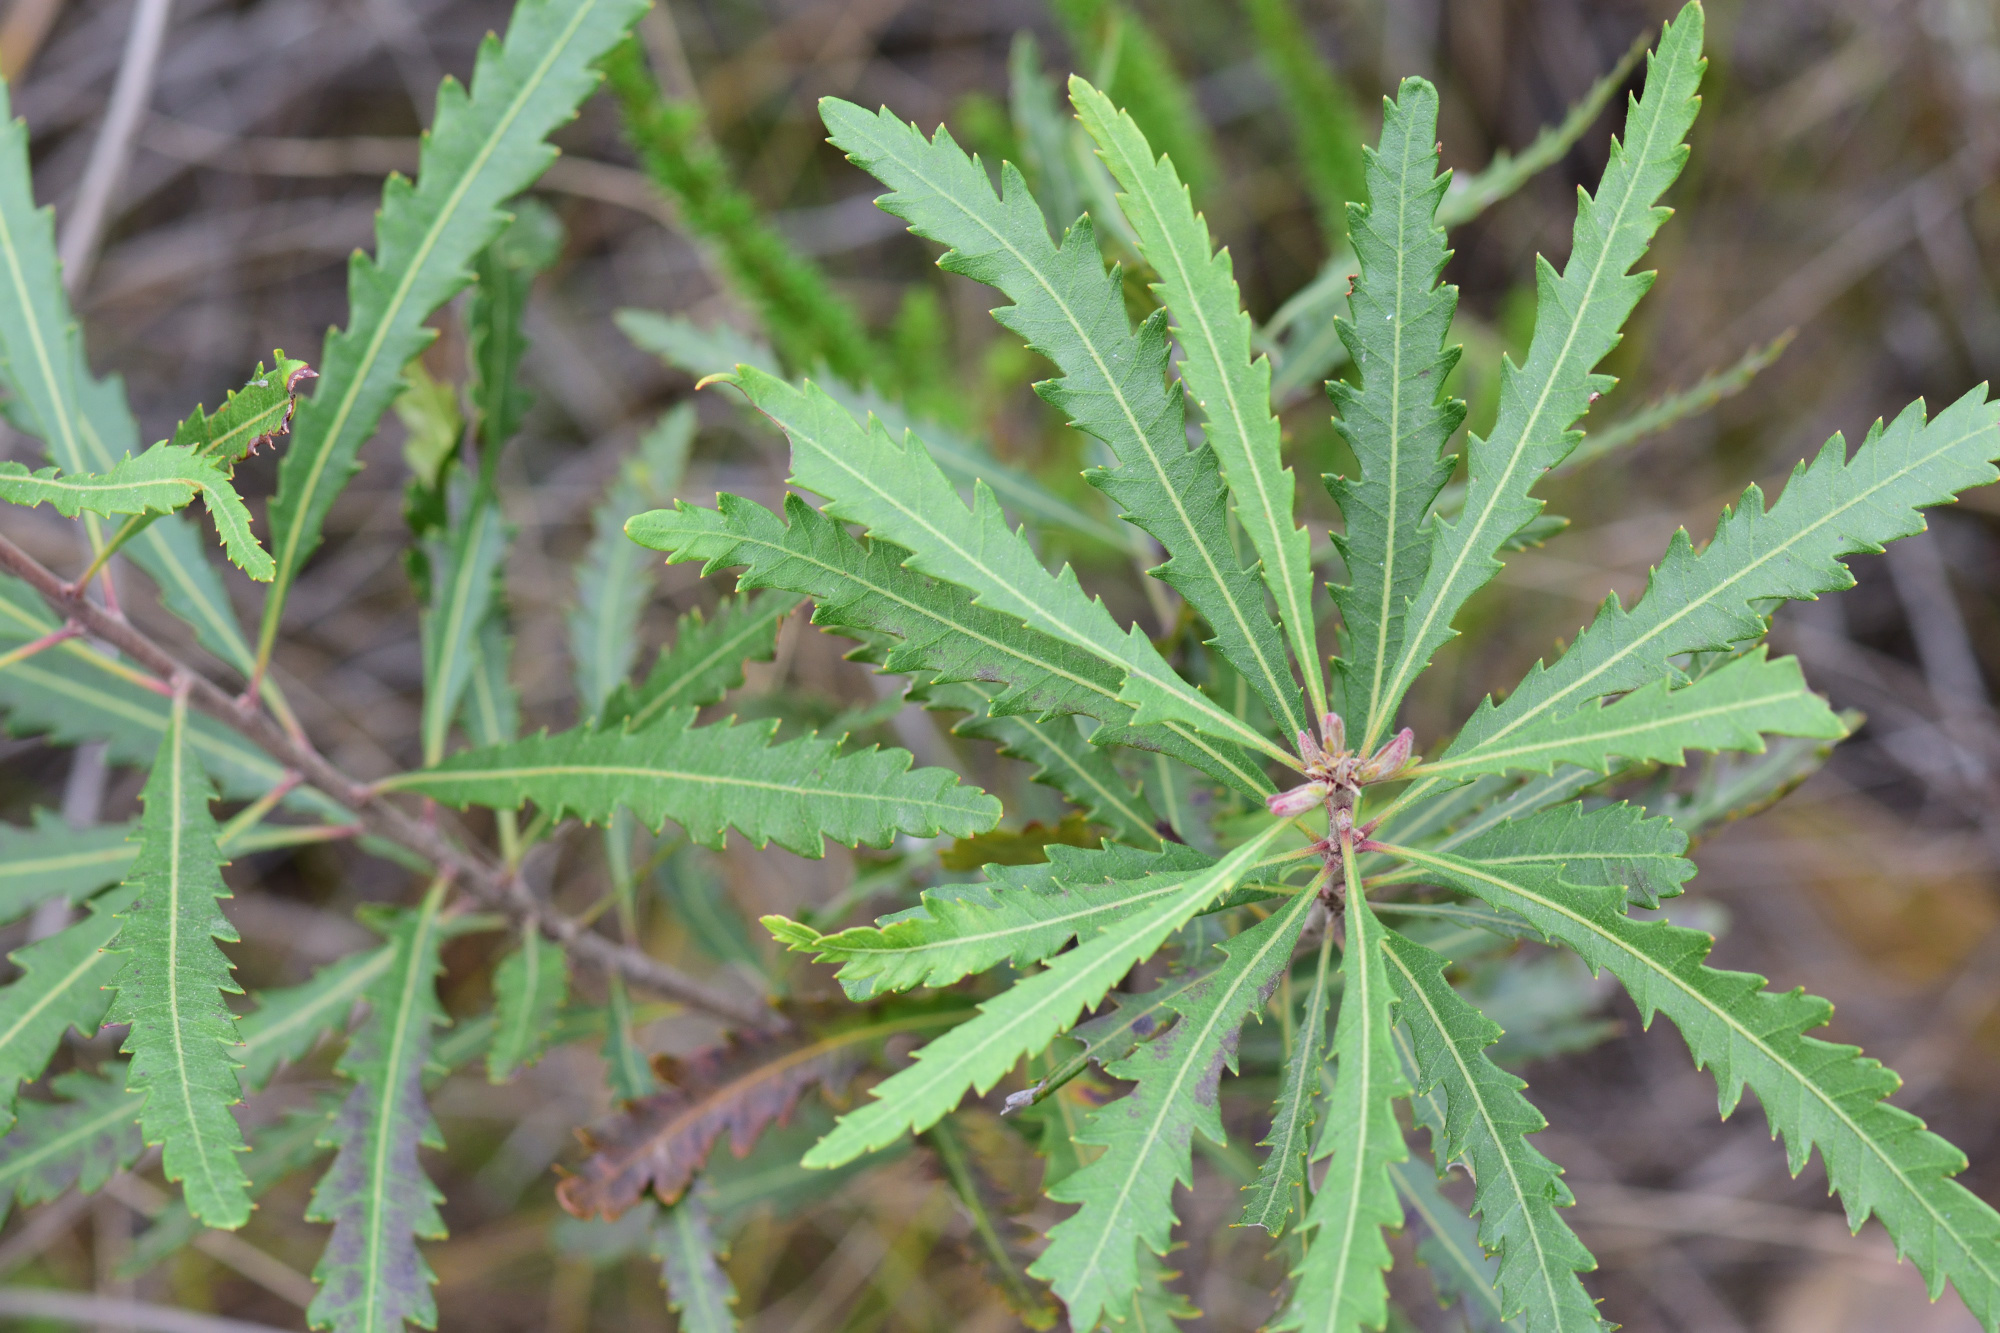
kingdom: Plantae
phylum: Tracheophyta
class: Magnoliopsida
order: Fagales
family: Myricaceae
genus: Morella
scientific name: Morella serrata
